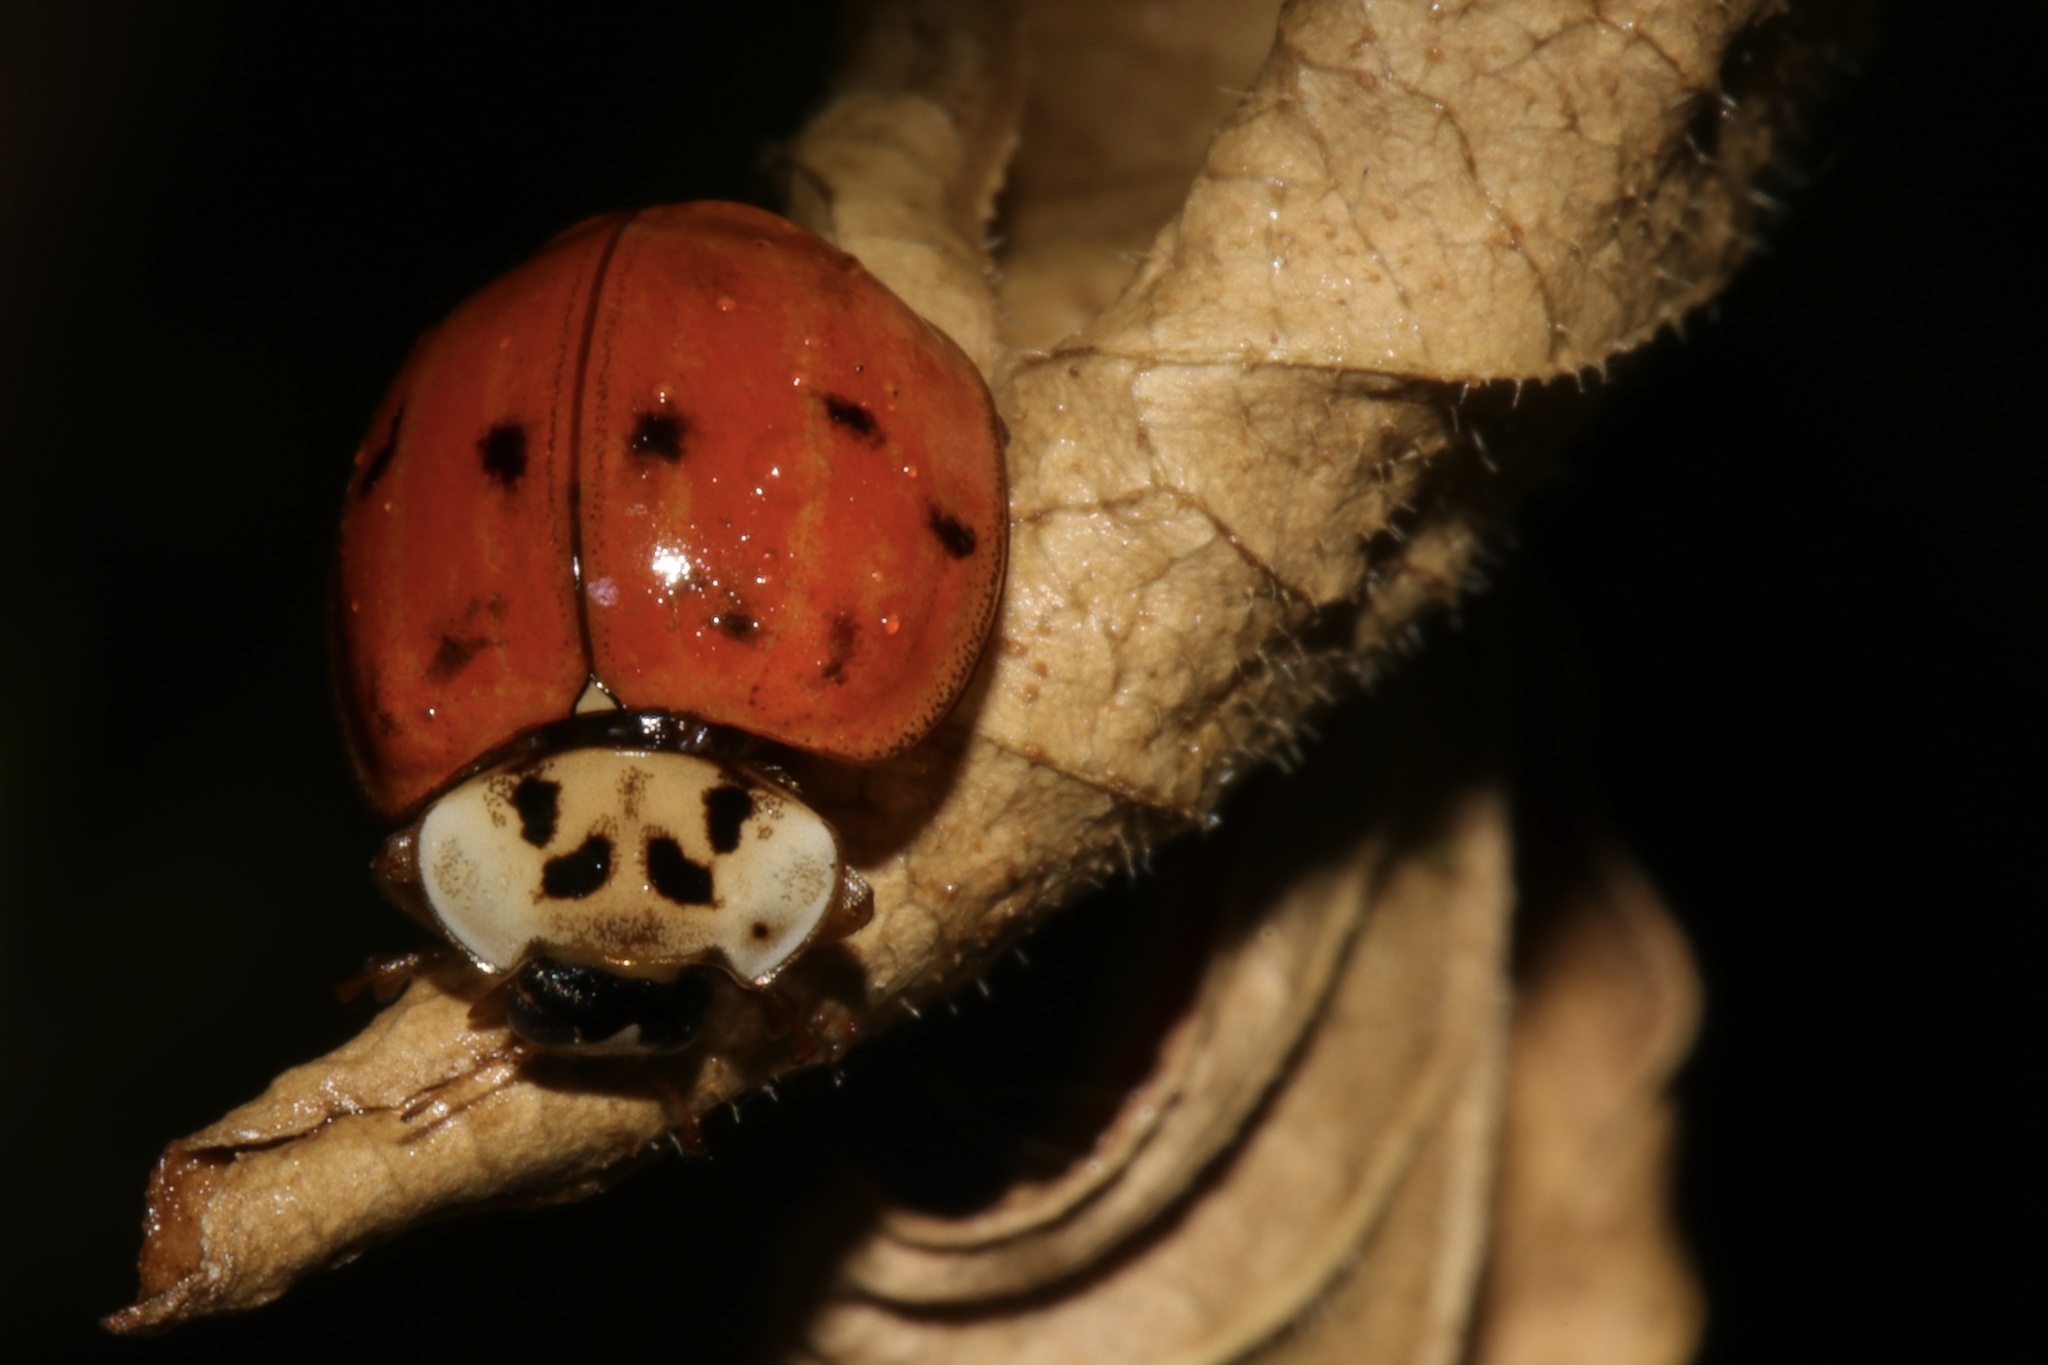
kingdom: Animalia
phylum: Arthropoda
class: Insecta
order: Coleoptera
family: Coccinellidae
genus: Harmonia
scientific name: Harmonia axyridis
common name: Harlequin ladybird
